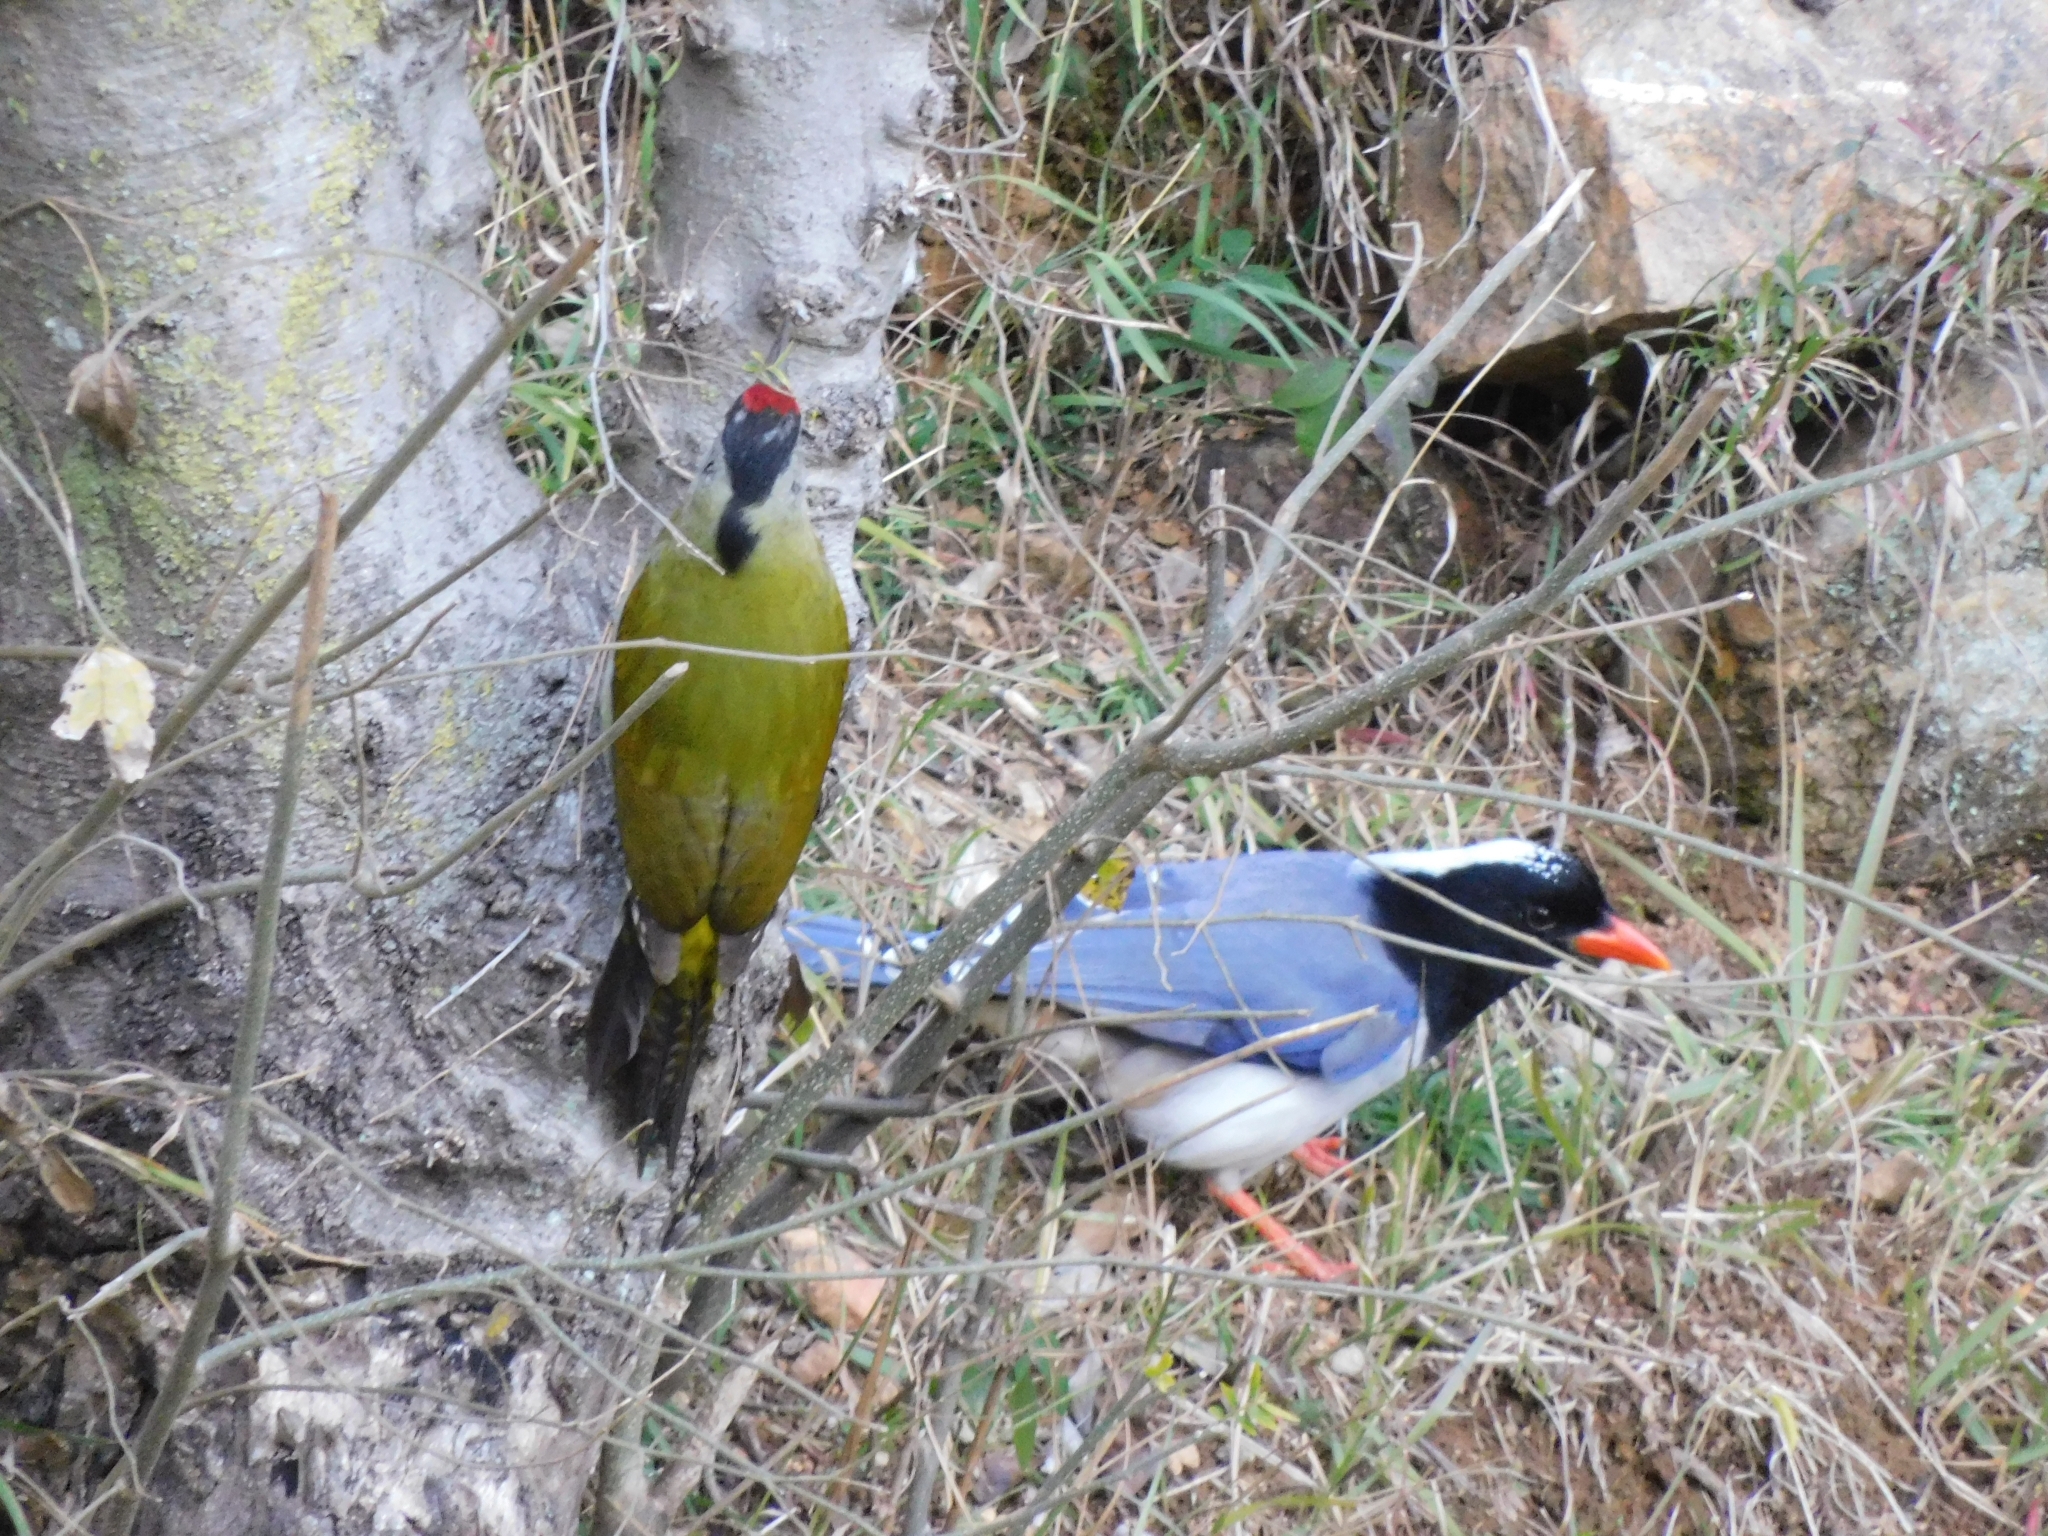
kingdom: Animalia
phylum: Chordata
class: Aves
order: Passeriformes
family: Corvidae
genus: Urocissa
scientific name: Urocissa erythroryncha
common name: Red-billed blue magpie
